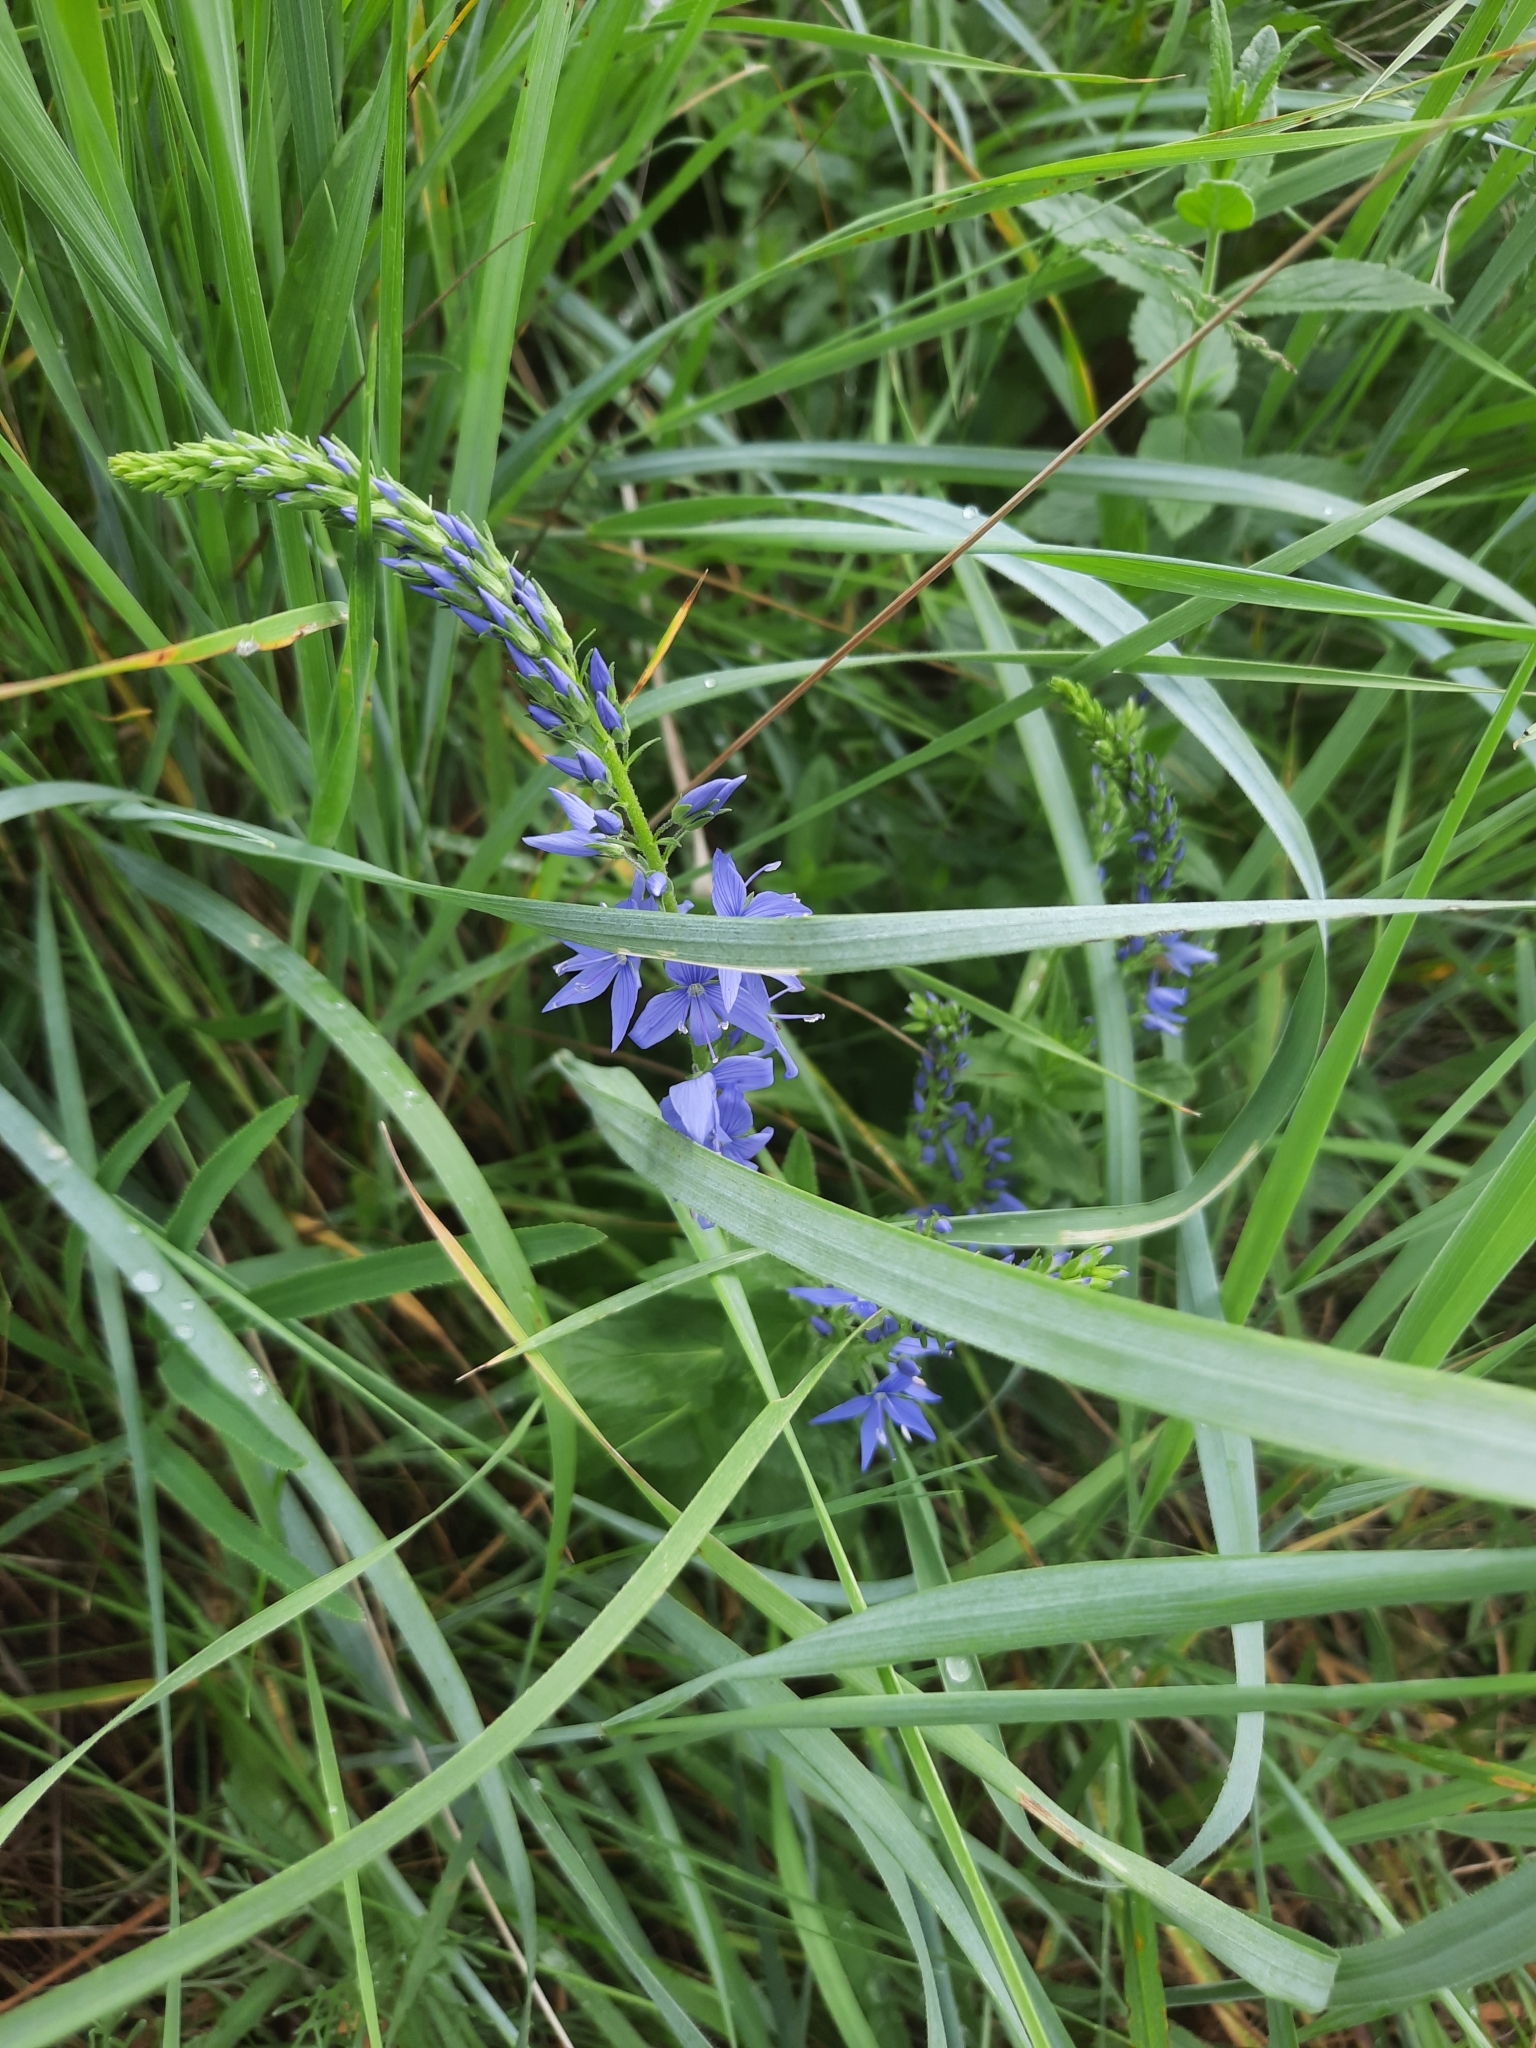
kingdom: Plantae
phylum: Tracheophyta
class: Magnoliopsida
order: Lamiales
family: Plantaginaceae
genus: Veronica
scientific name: Veronica teucrium
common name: Large speedwell
